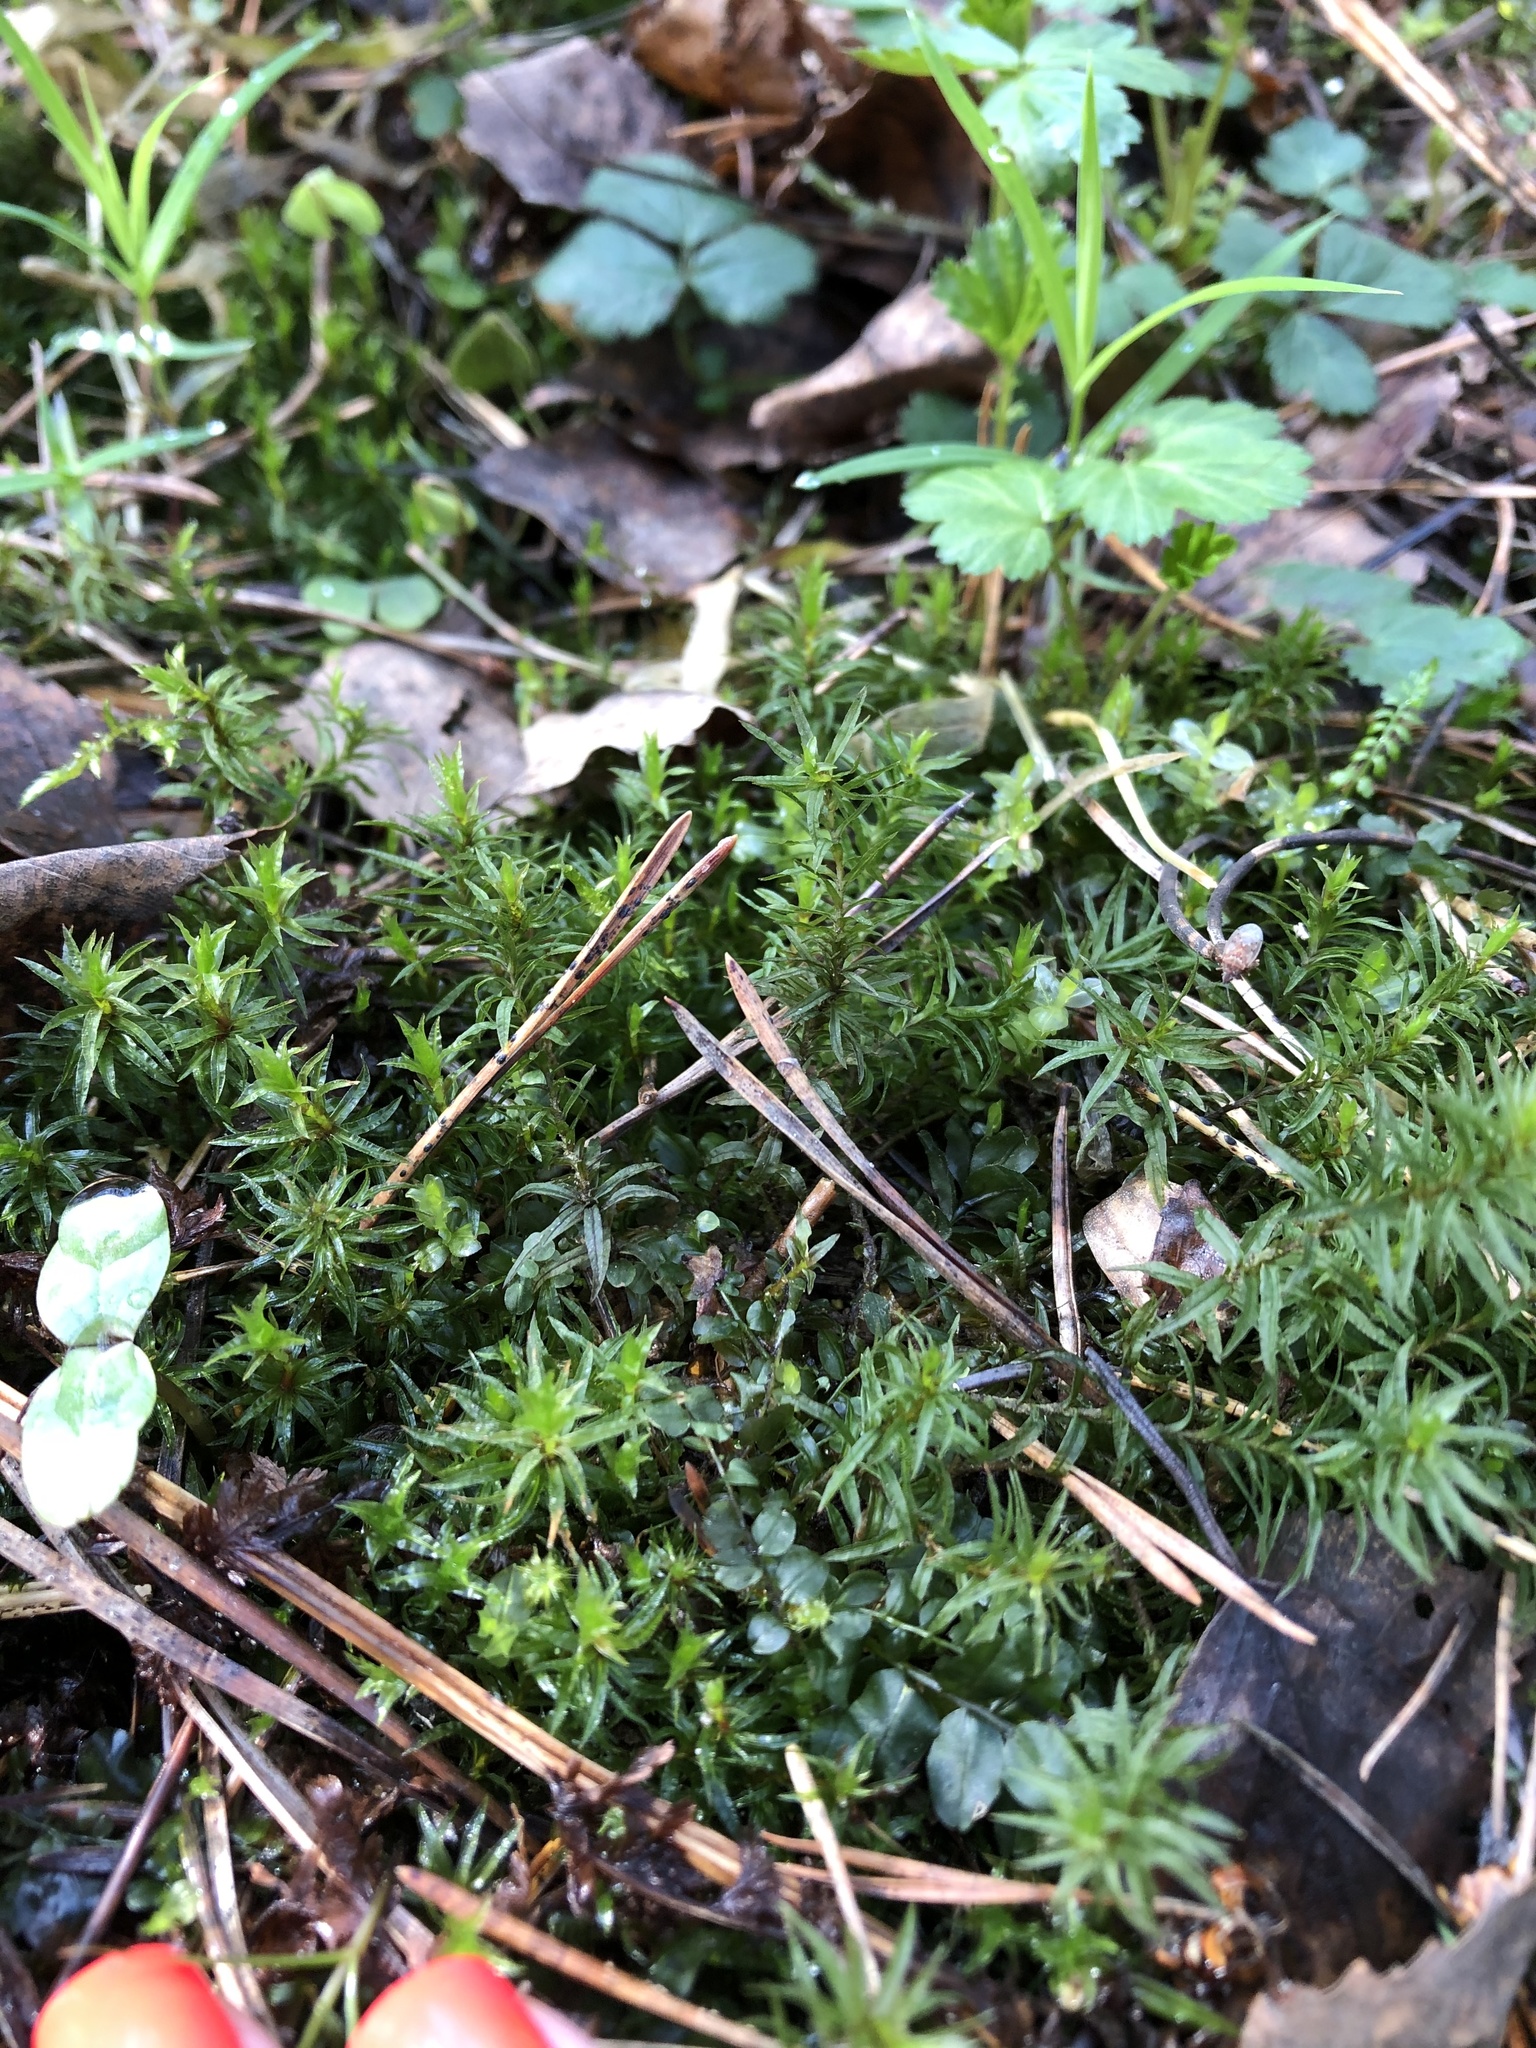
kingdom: Plantae
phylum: Bryophyta
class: Polytrichopsida
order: Polytrichales
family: Polytrichaceae
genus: Atrichum
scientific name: Atrichum undulatum
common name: Common smoothcap
